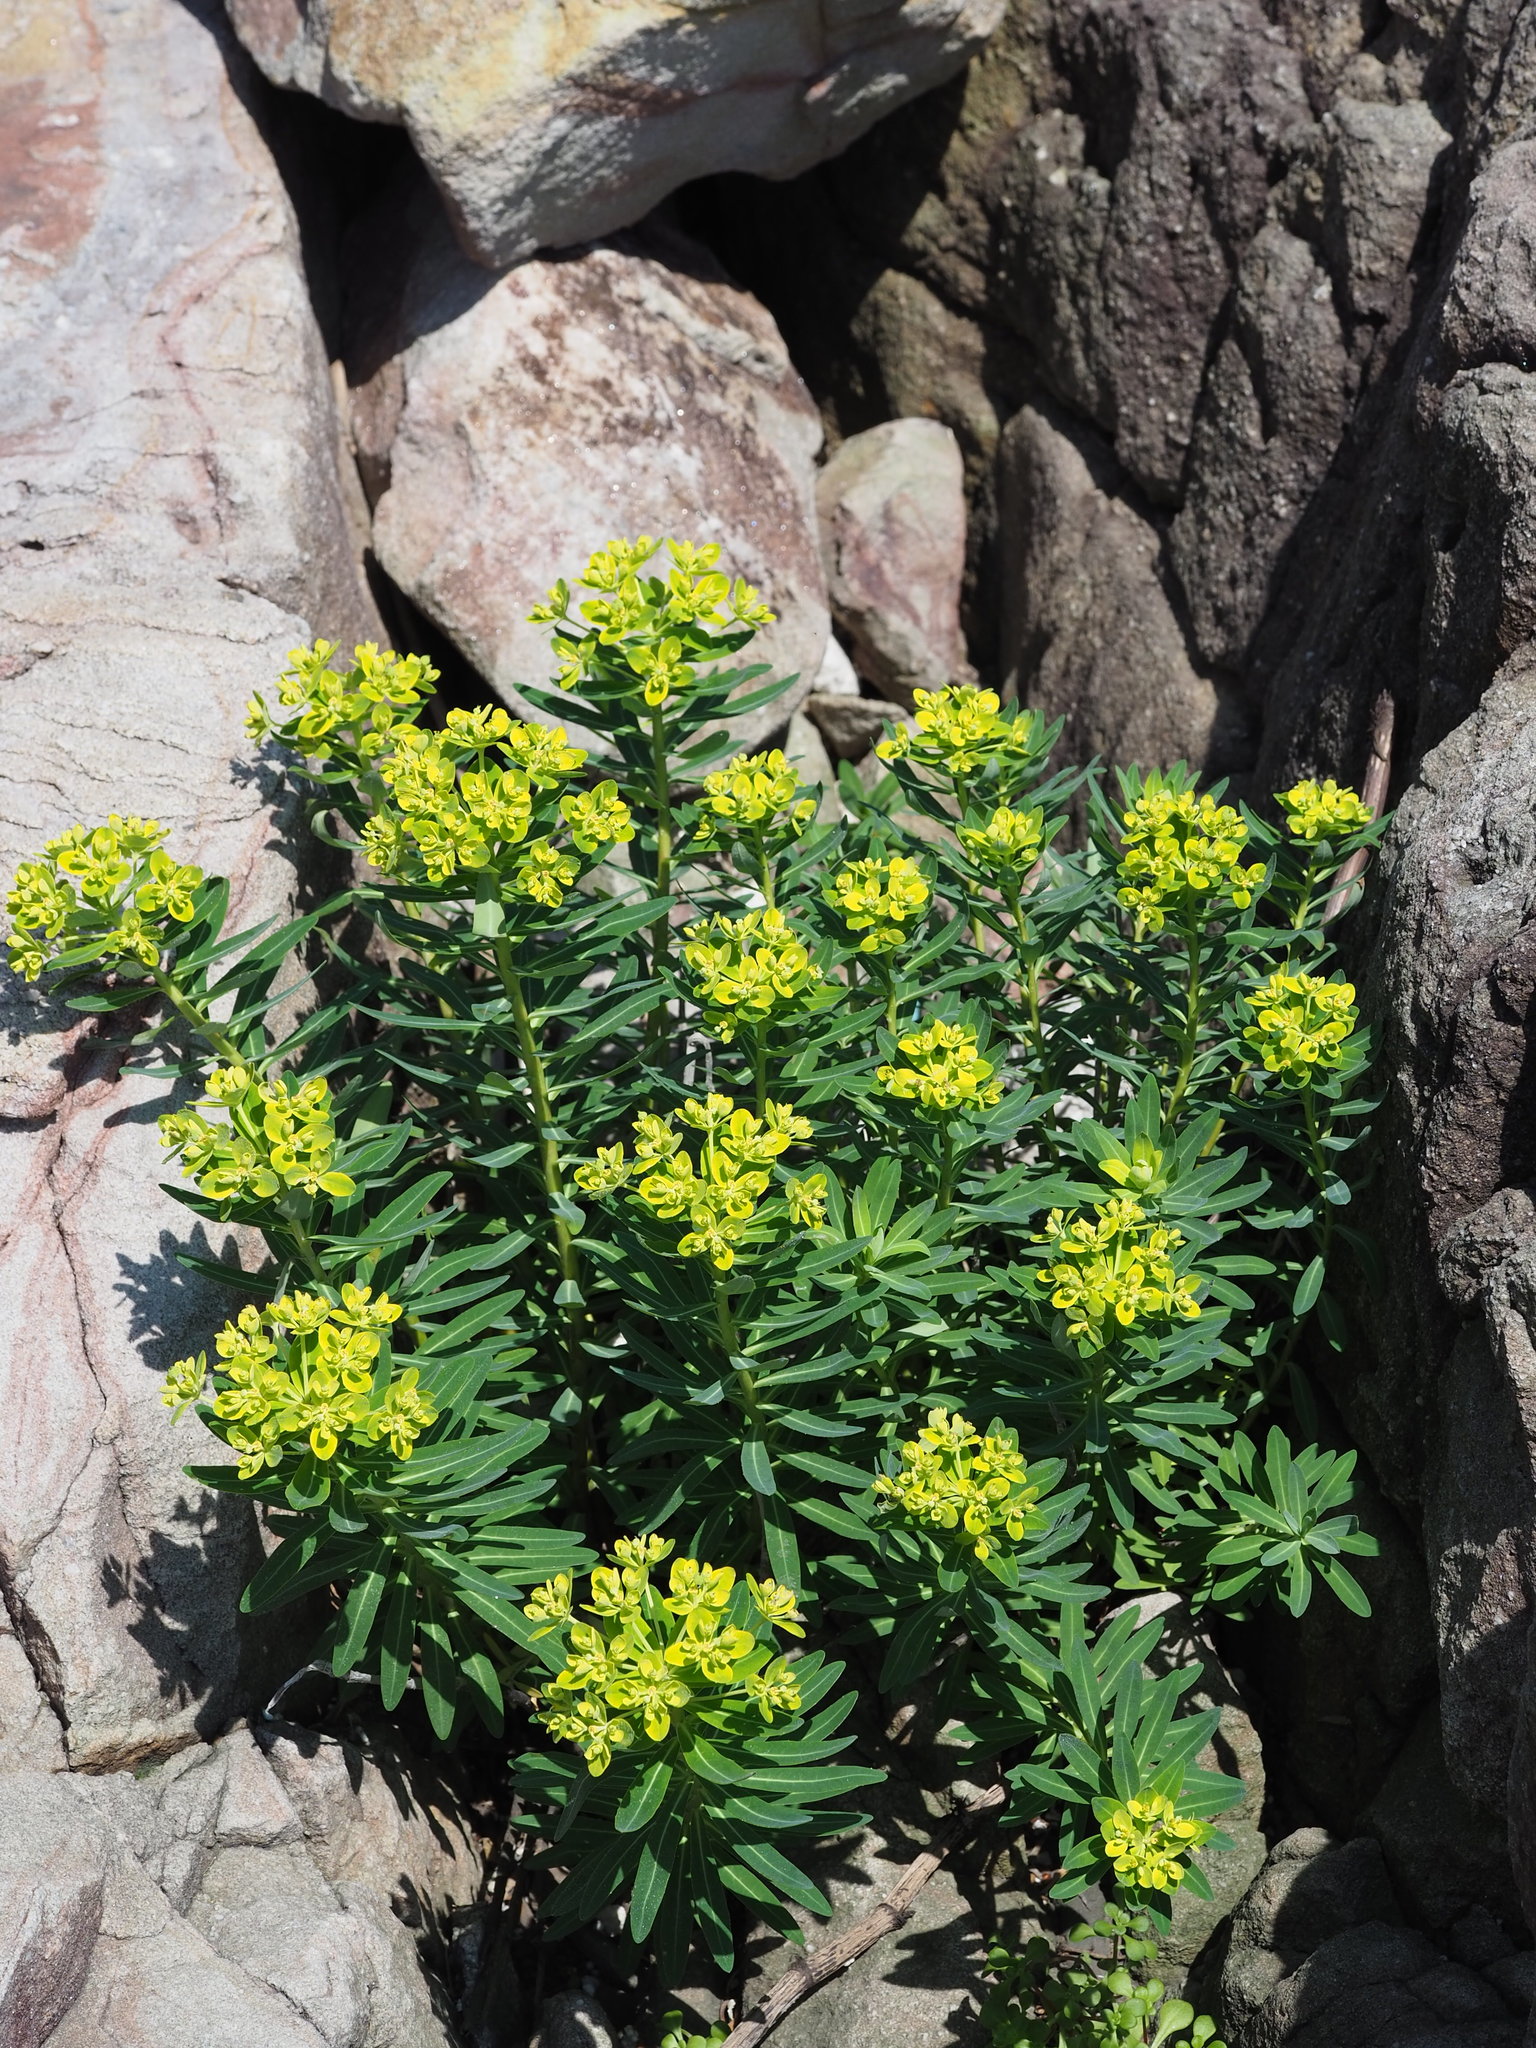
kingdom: Plantae
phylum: Tracheophyta
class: Magnoliopsida
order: Malpighiales
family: Euphorbiaceae
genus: Euphorbia
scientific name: Euphorbia jolkinii
